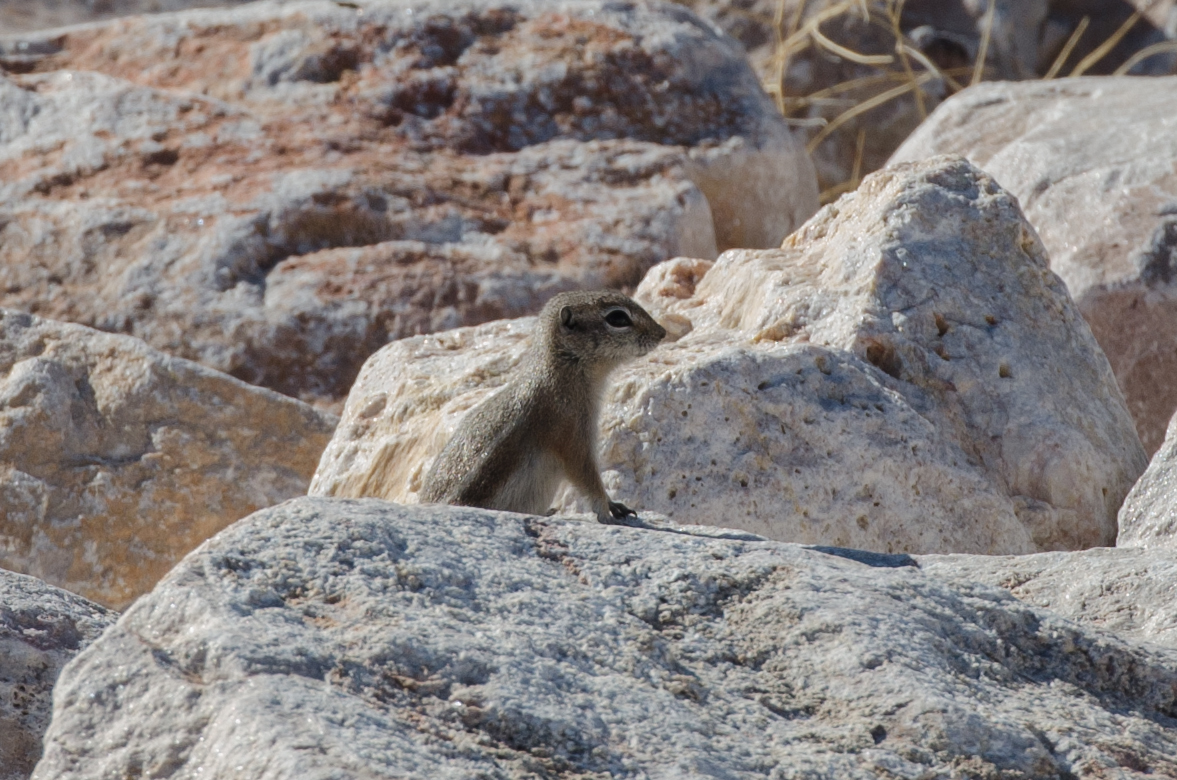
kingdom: Animalia
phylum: Chordata
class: Mammalia
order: Rodentia
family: Sciuridae
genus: Ammospermophilus
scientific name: Ammospermophilus leucurus
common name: White-tailed antelope squirrel
